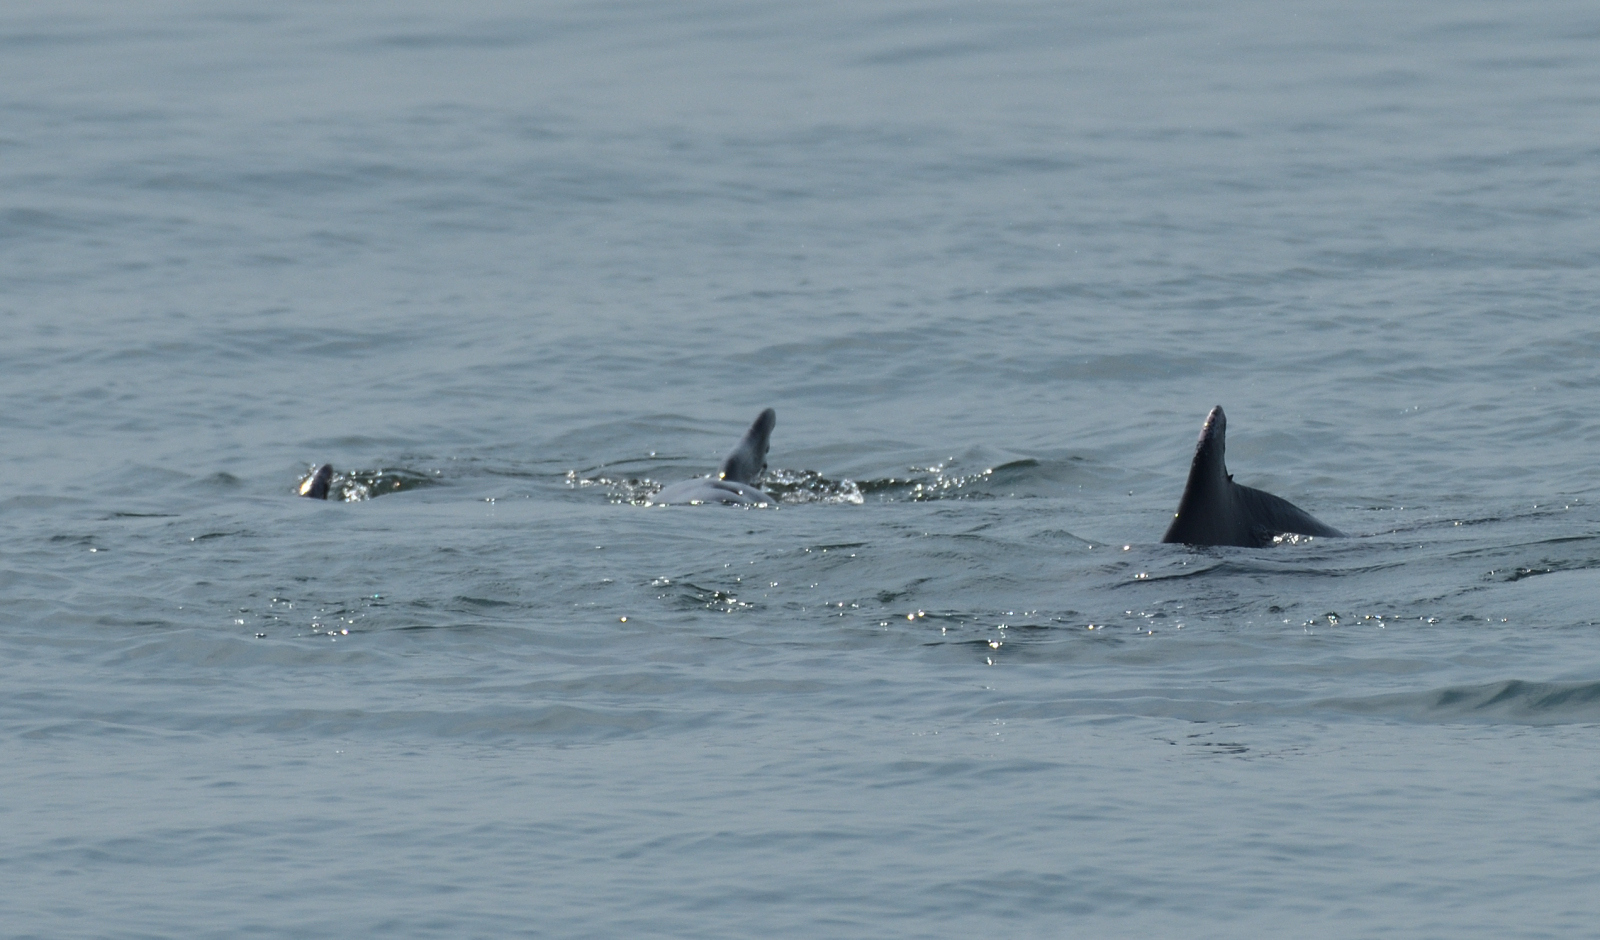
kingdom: Animalia
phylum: Chordata
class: Mammalia
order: Cetacea
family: Delphinidae
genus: Sousa
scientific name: Sousa plumbea
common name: Indian ocean humpback dolphin
